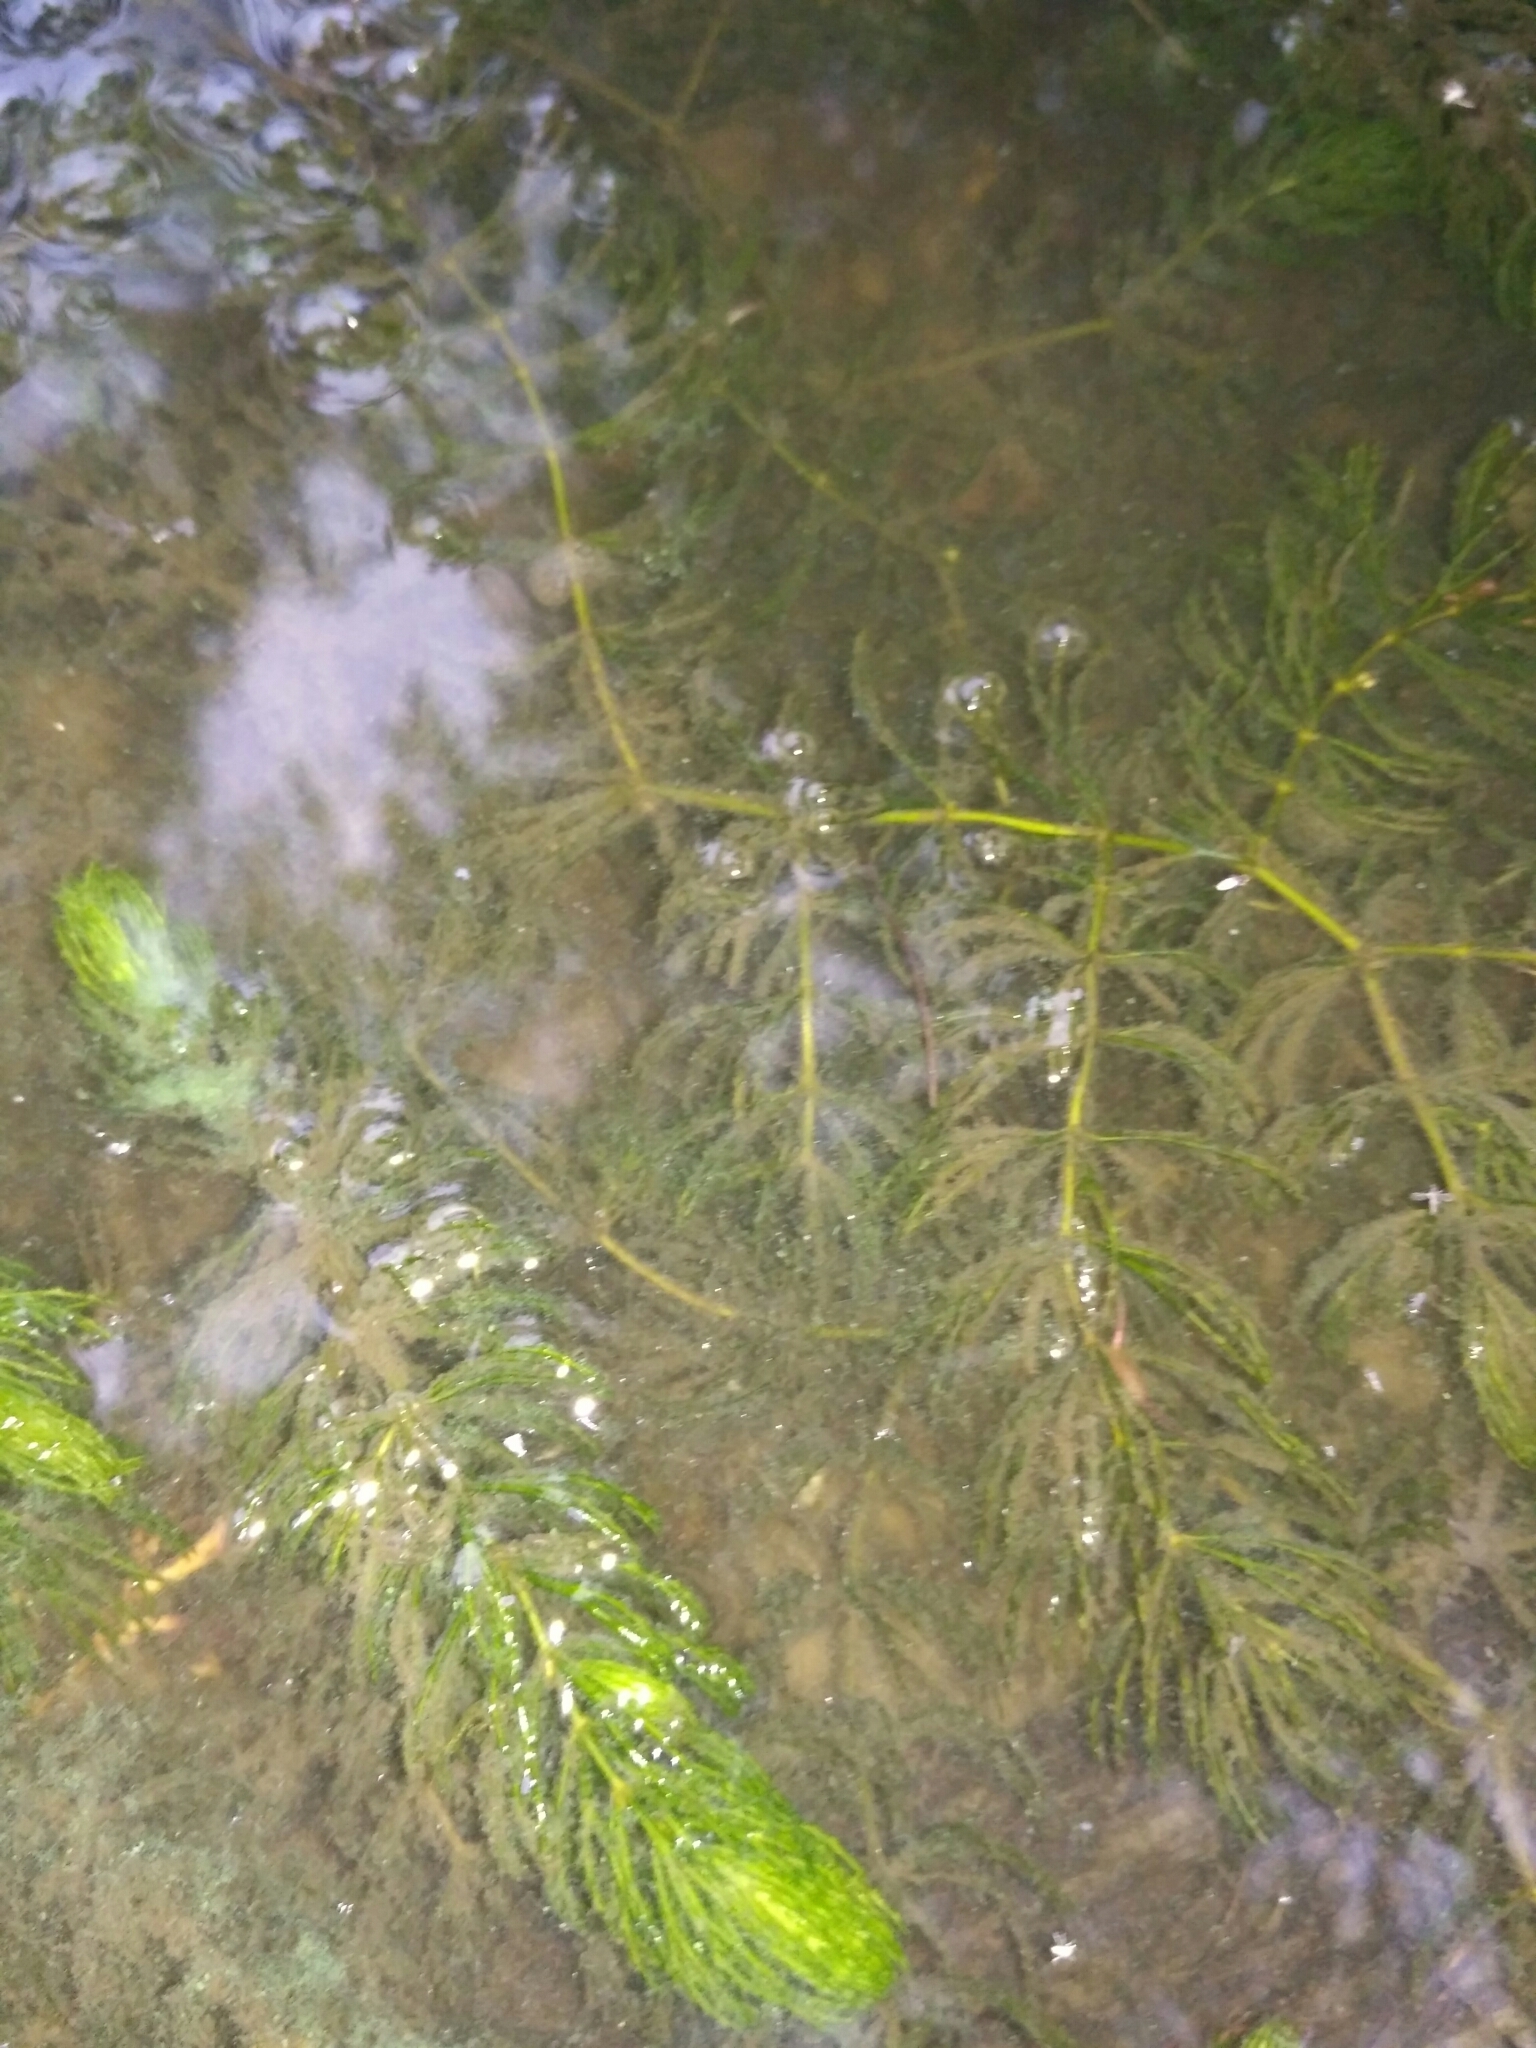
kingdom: Plantae
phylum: Tracheophyta
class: Magnoliopsida
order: Ceratophyllales
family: Ceratophyllaceae
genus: Ceratophyllum
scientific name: Ceratophyllum demersum
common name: Rigid hornwort
